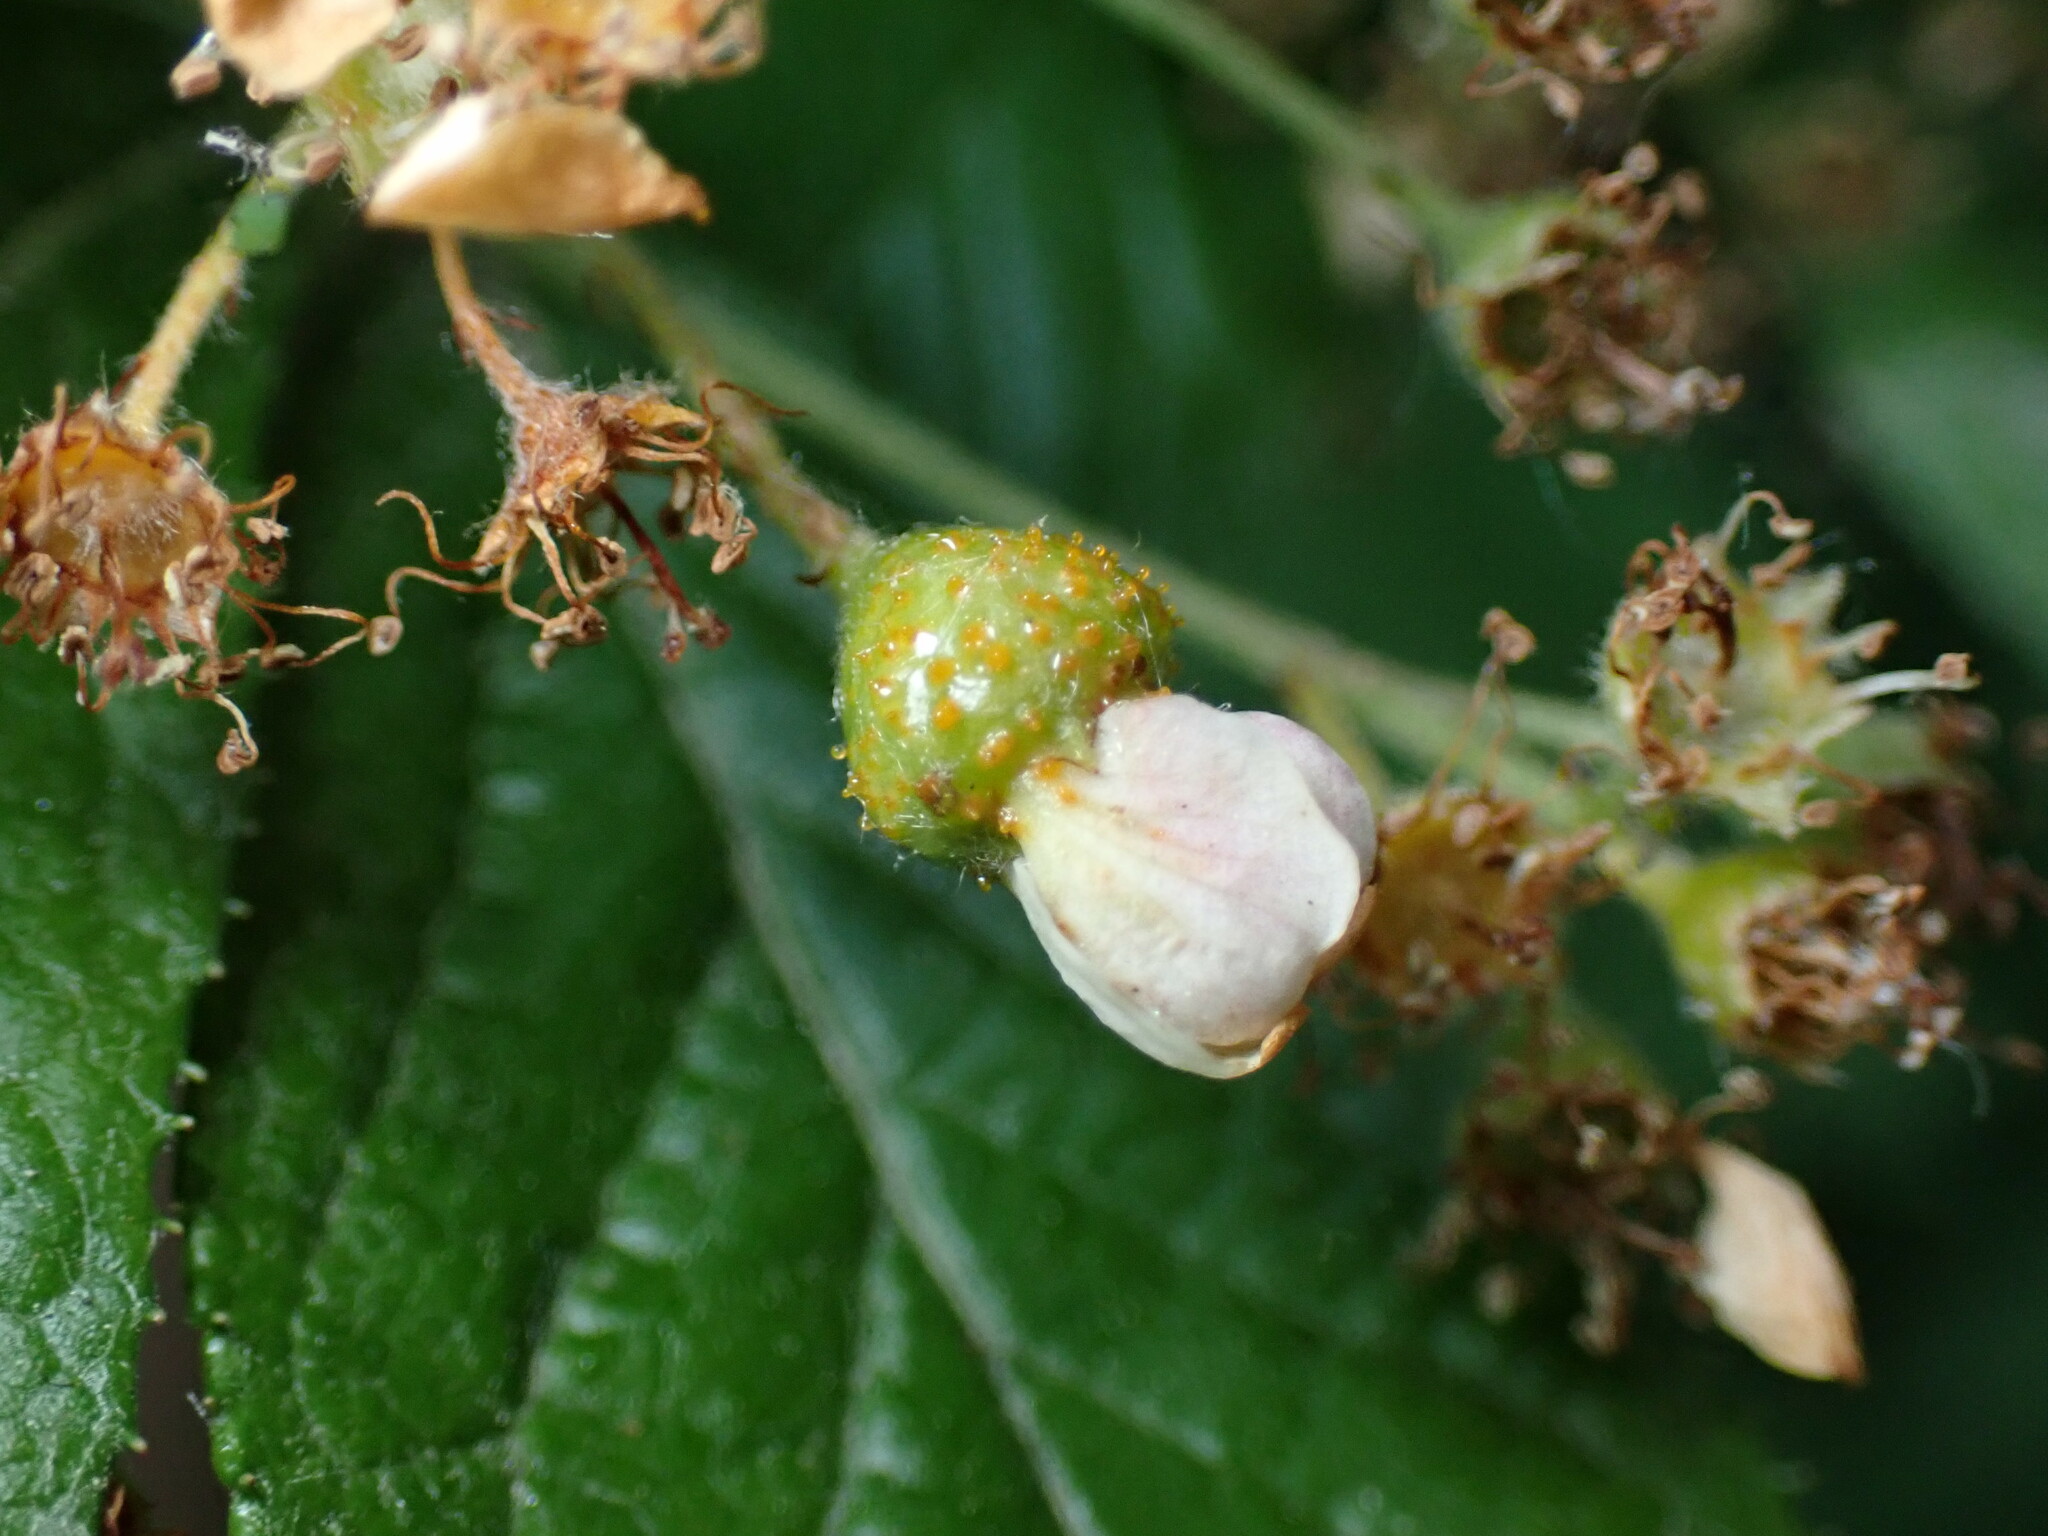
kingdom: Plantae
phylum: Tracheophyta
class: Magnoliopsida
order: Rosales
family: Rosaceae
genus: Pourthiaea
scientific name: Pourthiaea villosa
